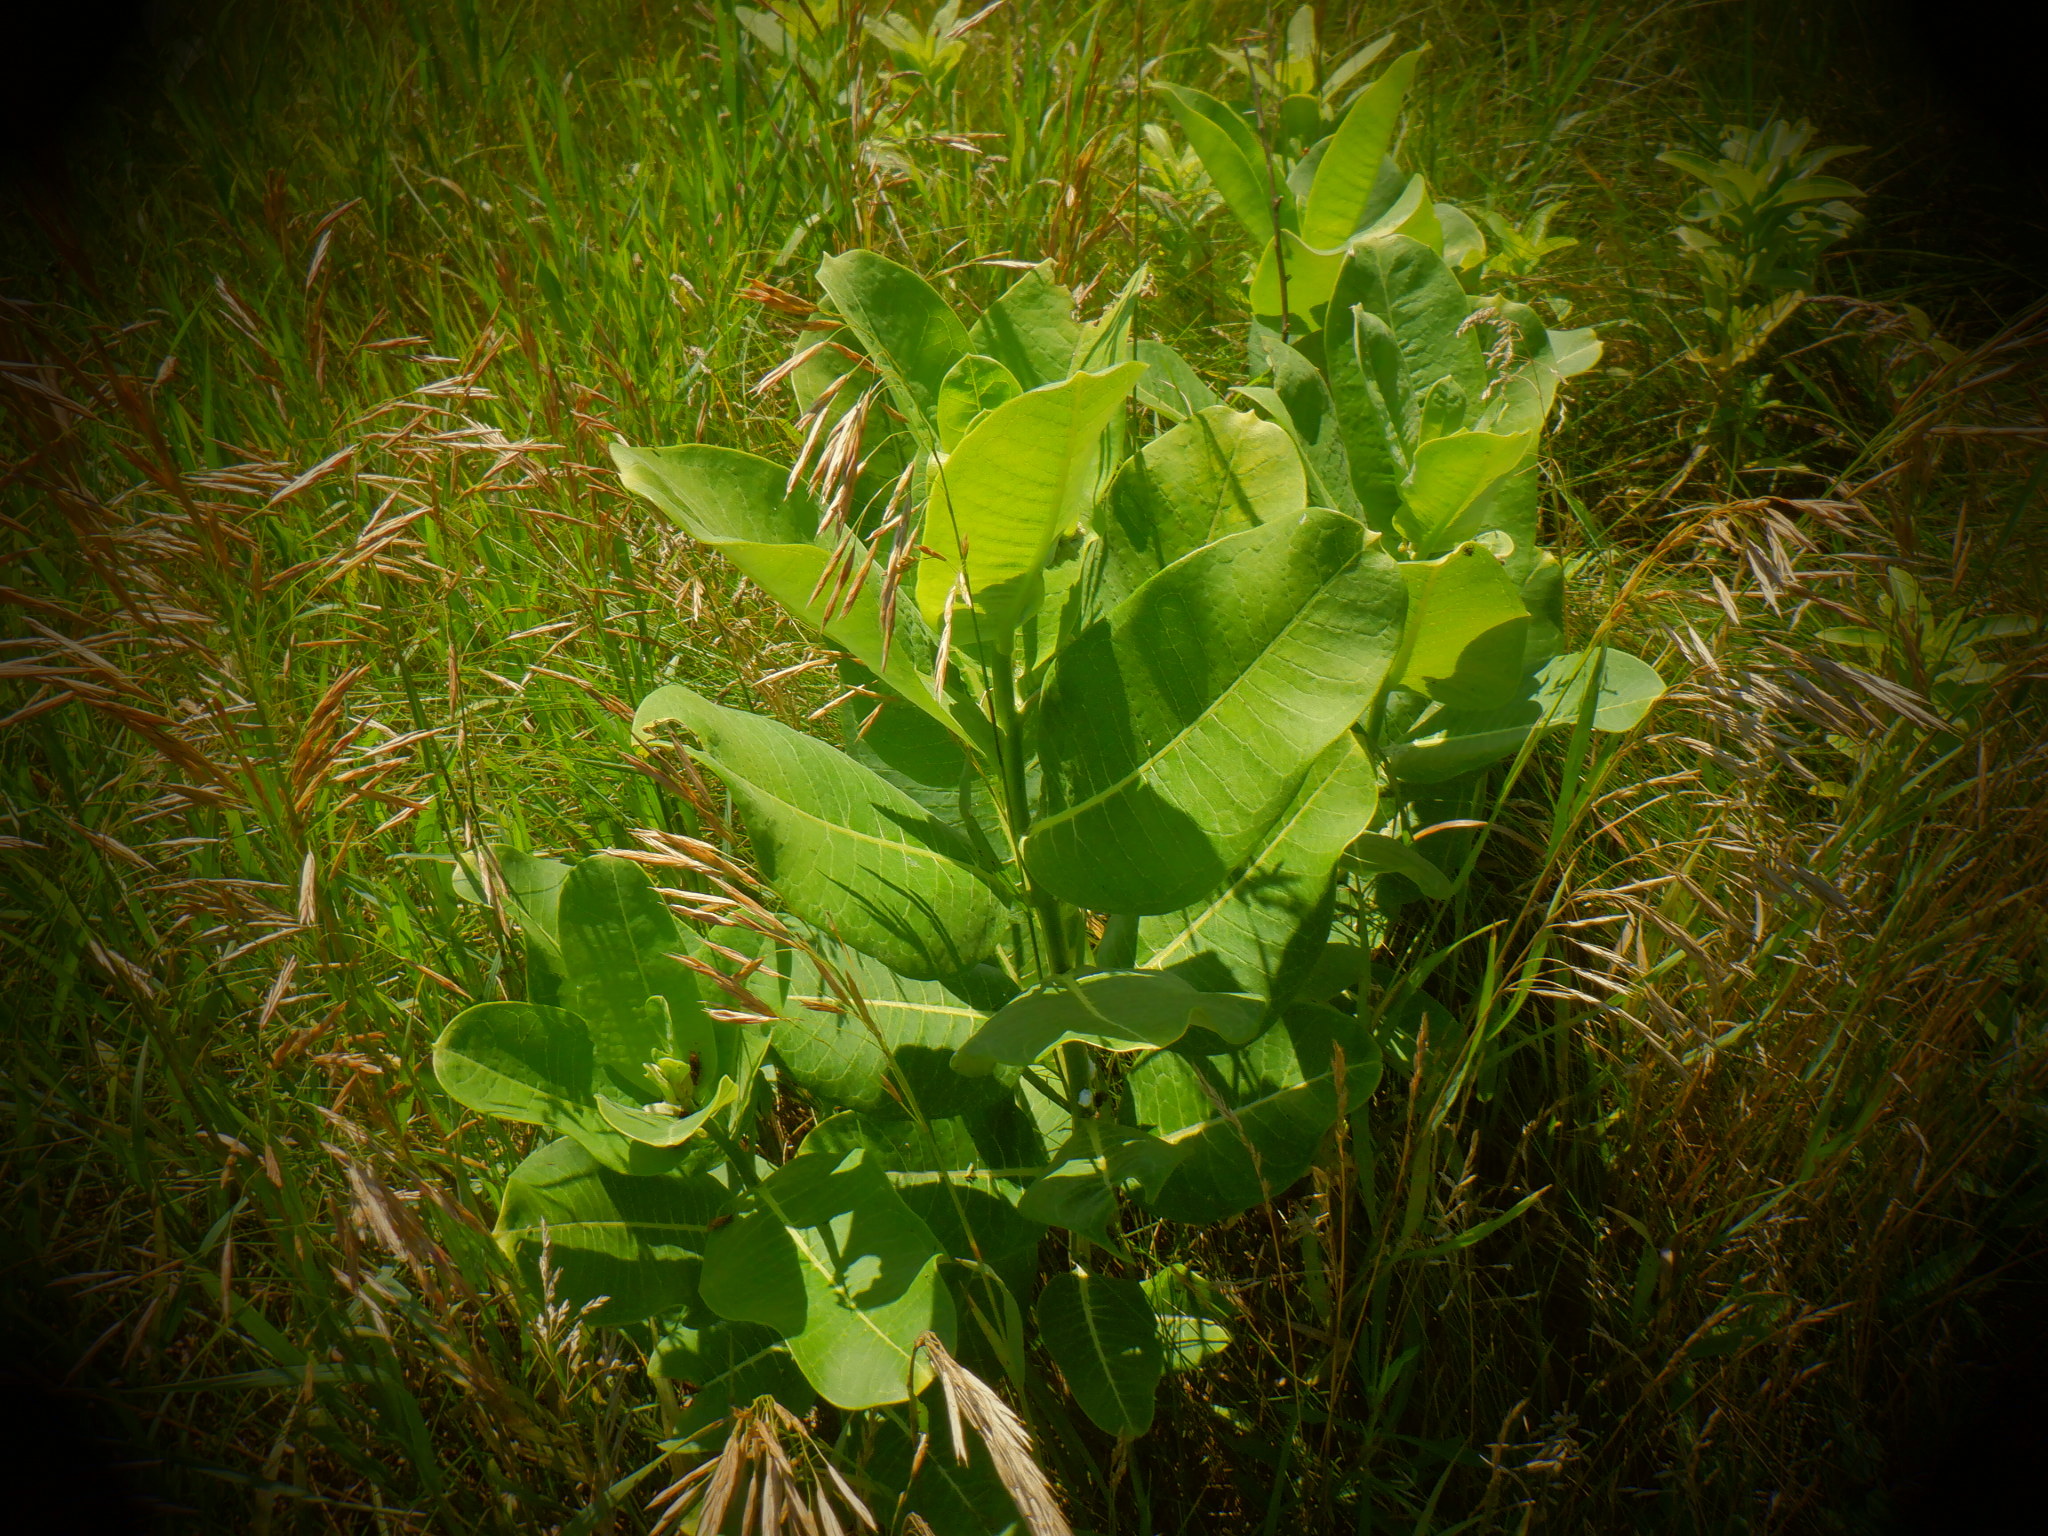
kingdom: Plantae
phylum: Tracheophyta
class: Magnoliopsida
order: Gentianales
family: Apocynaceae
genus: Asclepias
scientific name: Asclepias syriaca
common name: Common milkweed
